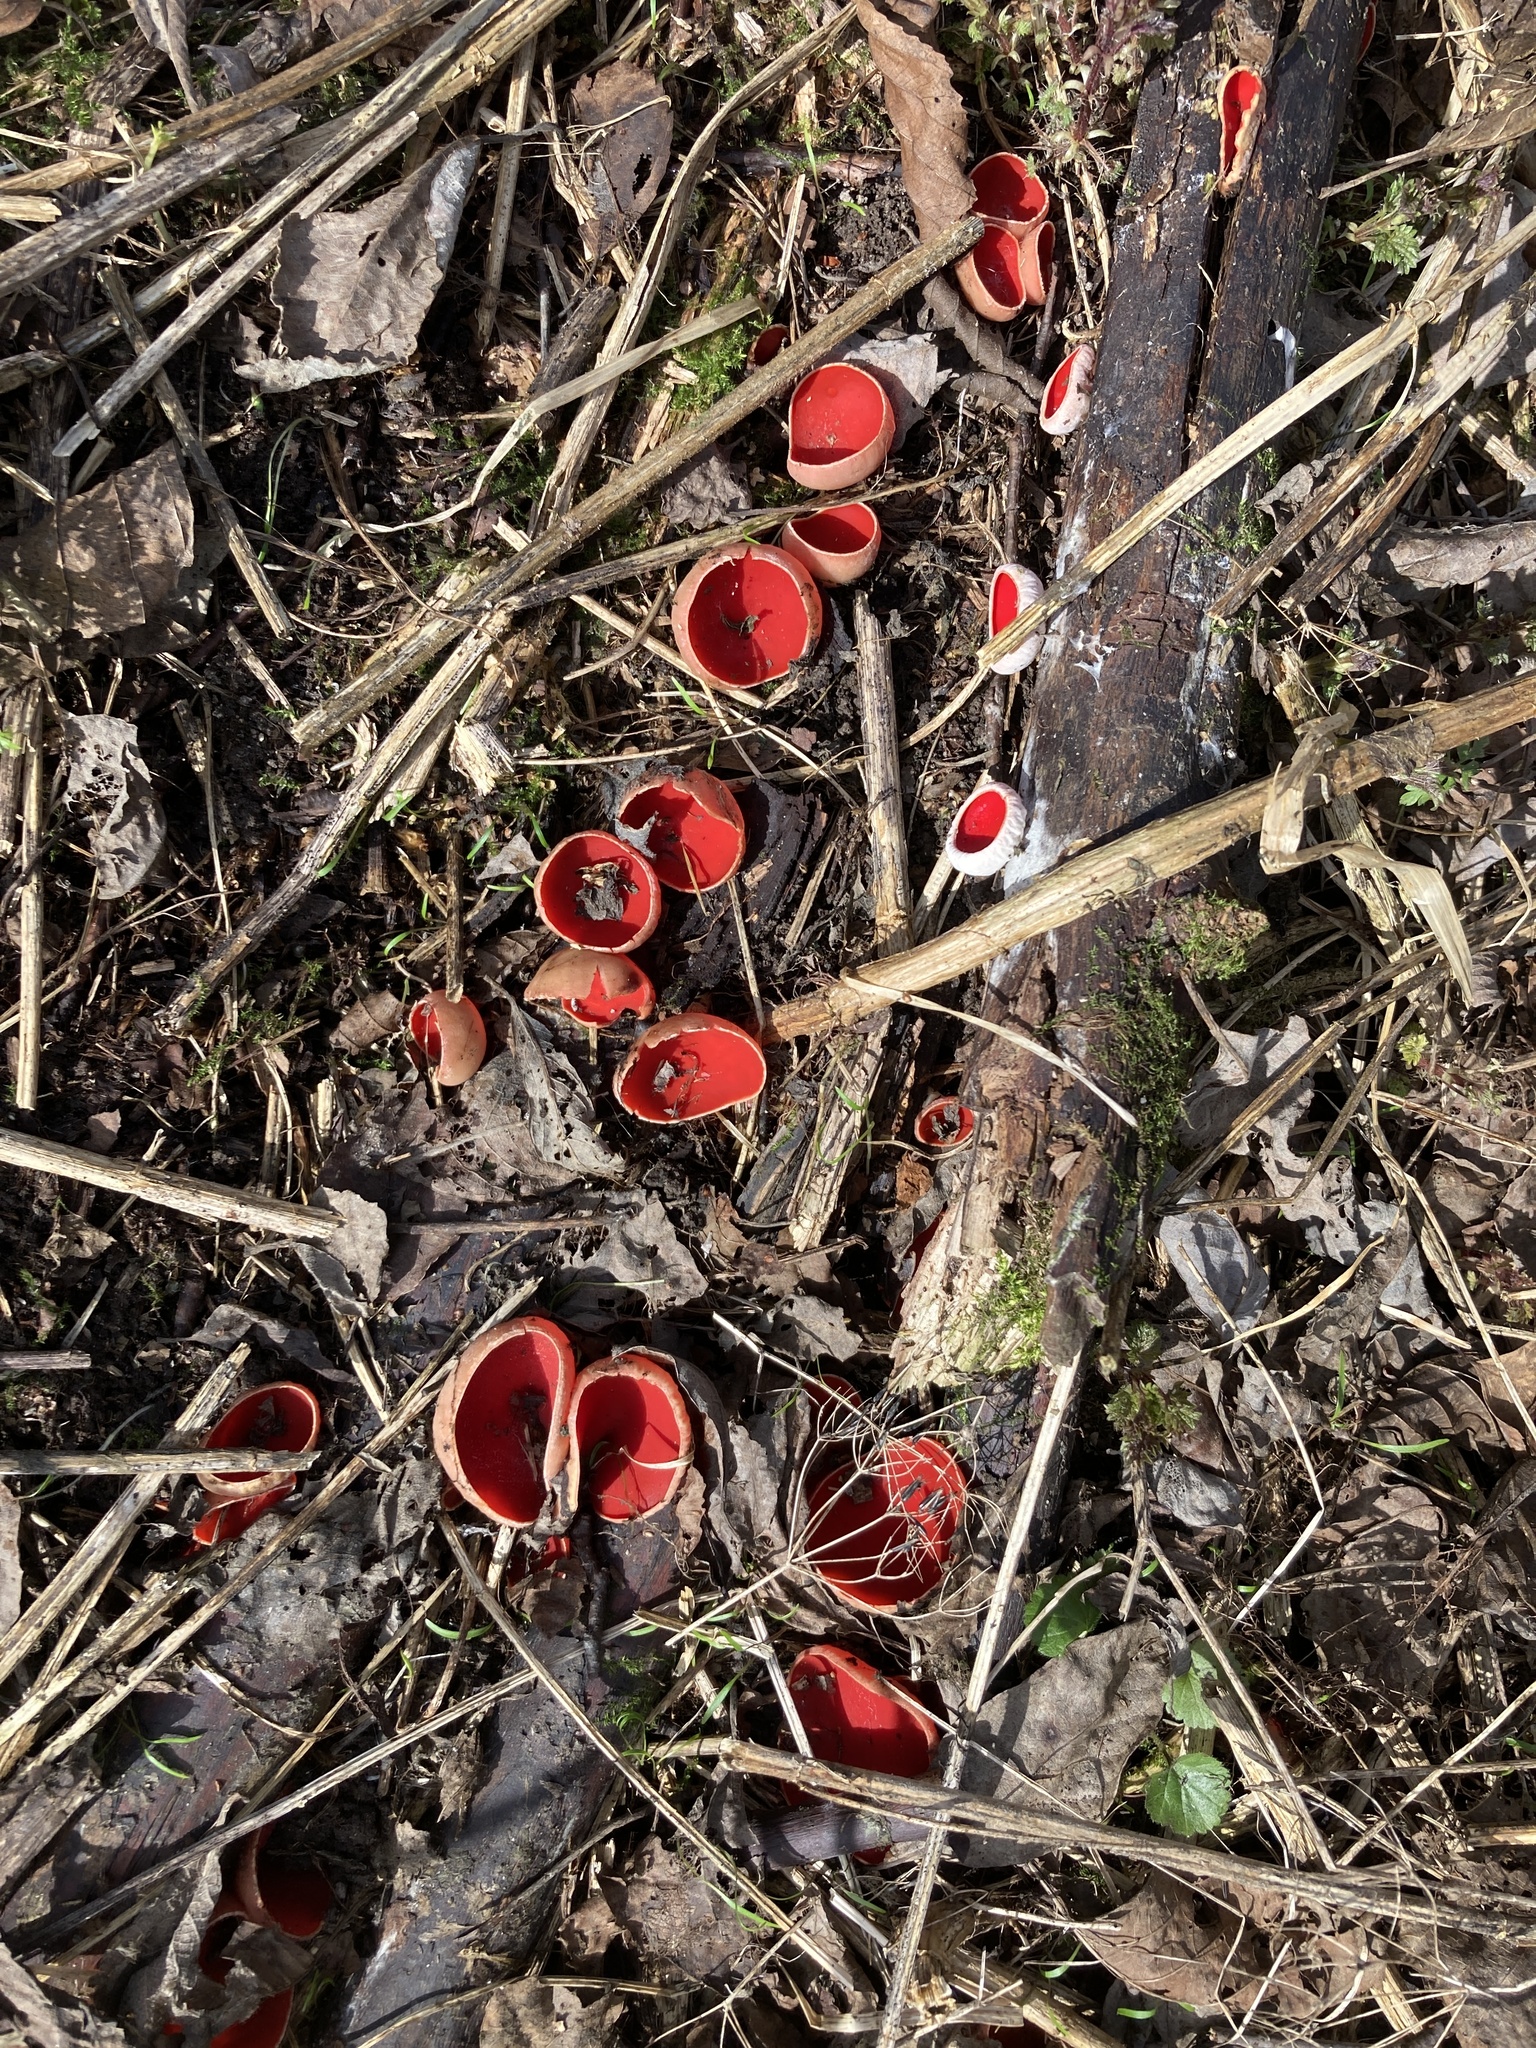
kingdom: Fungi
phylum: Ascomycota
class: Pezizomycetes
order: Pezizales
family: Sarcoscyphaceae
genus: Sarcoscypha
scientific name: Sarcoscypha austriaca
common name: Scarlet elfcup
